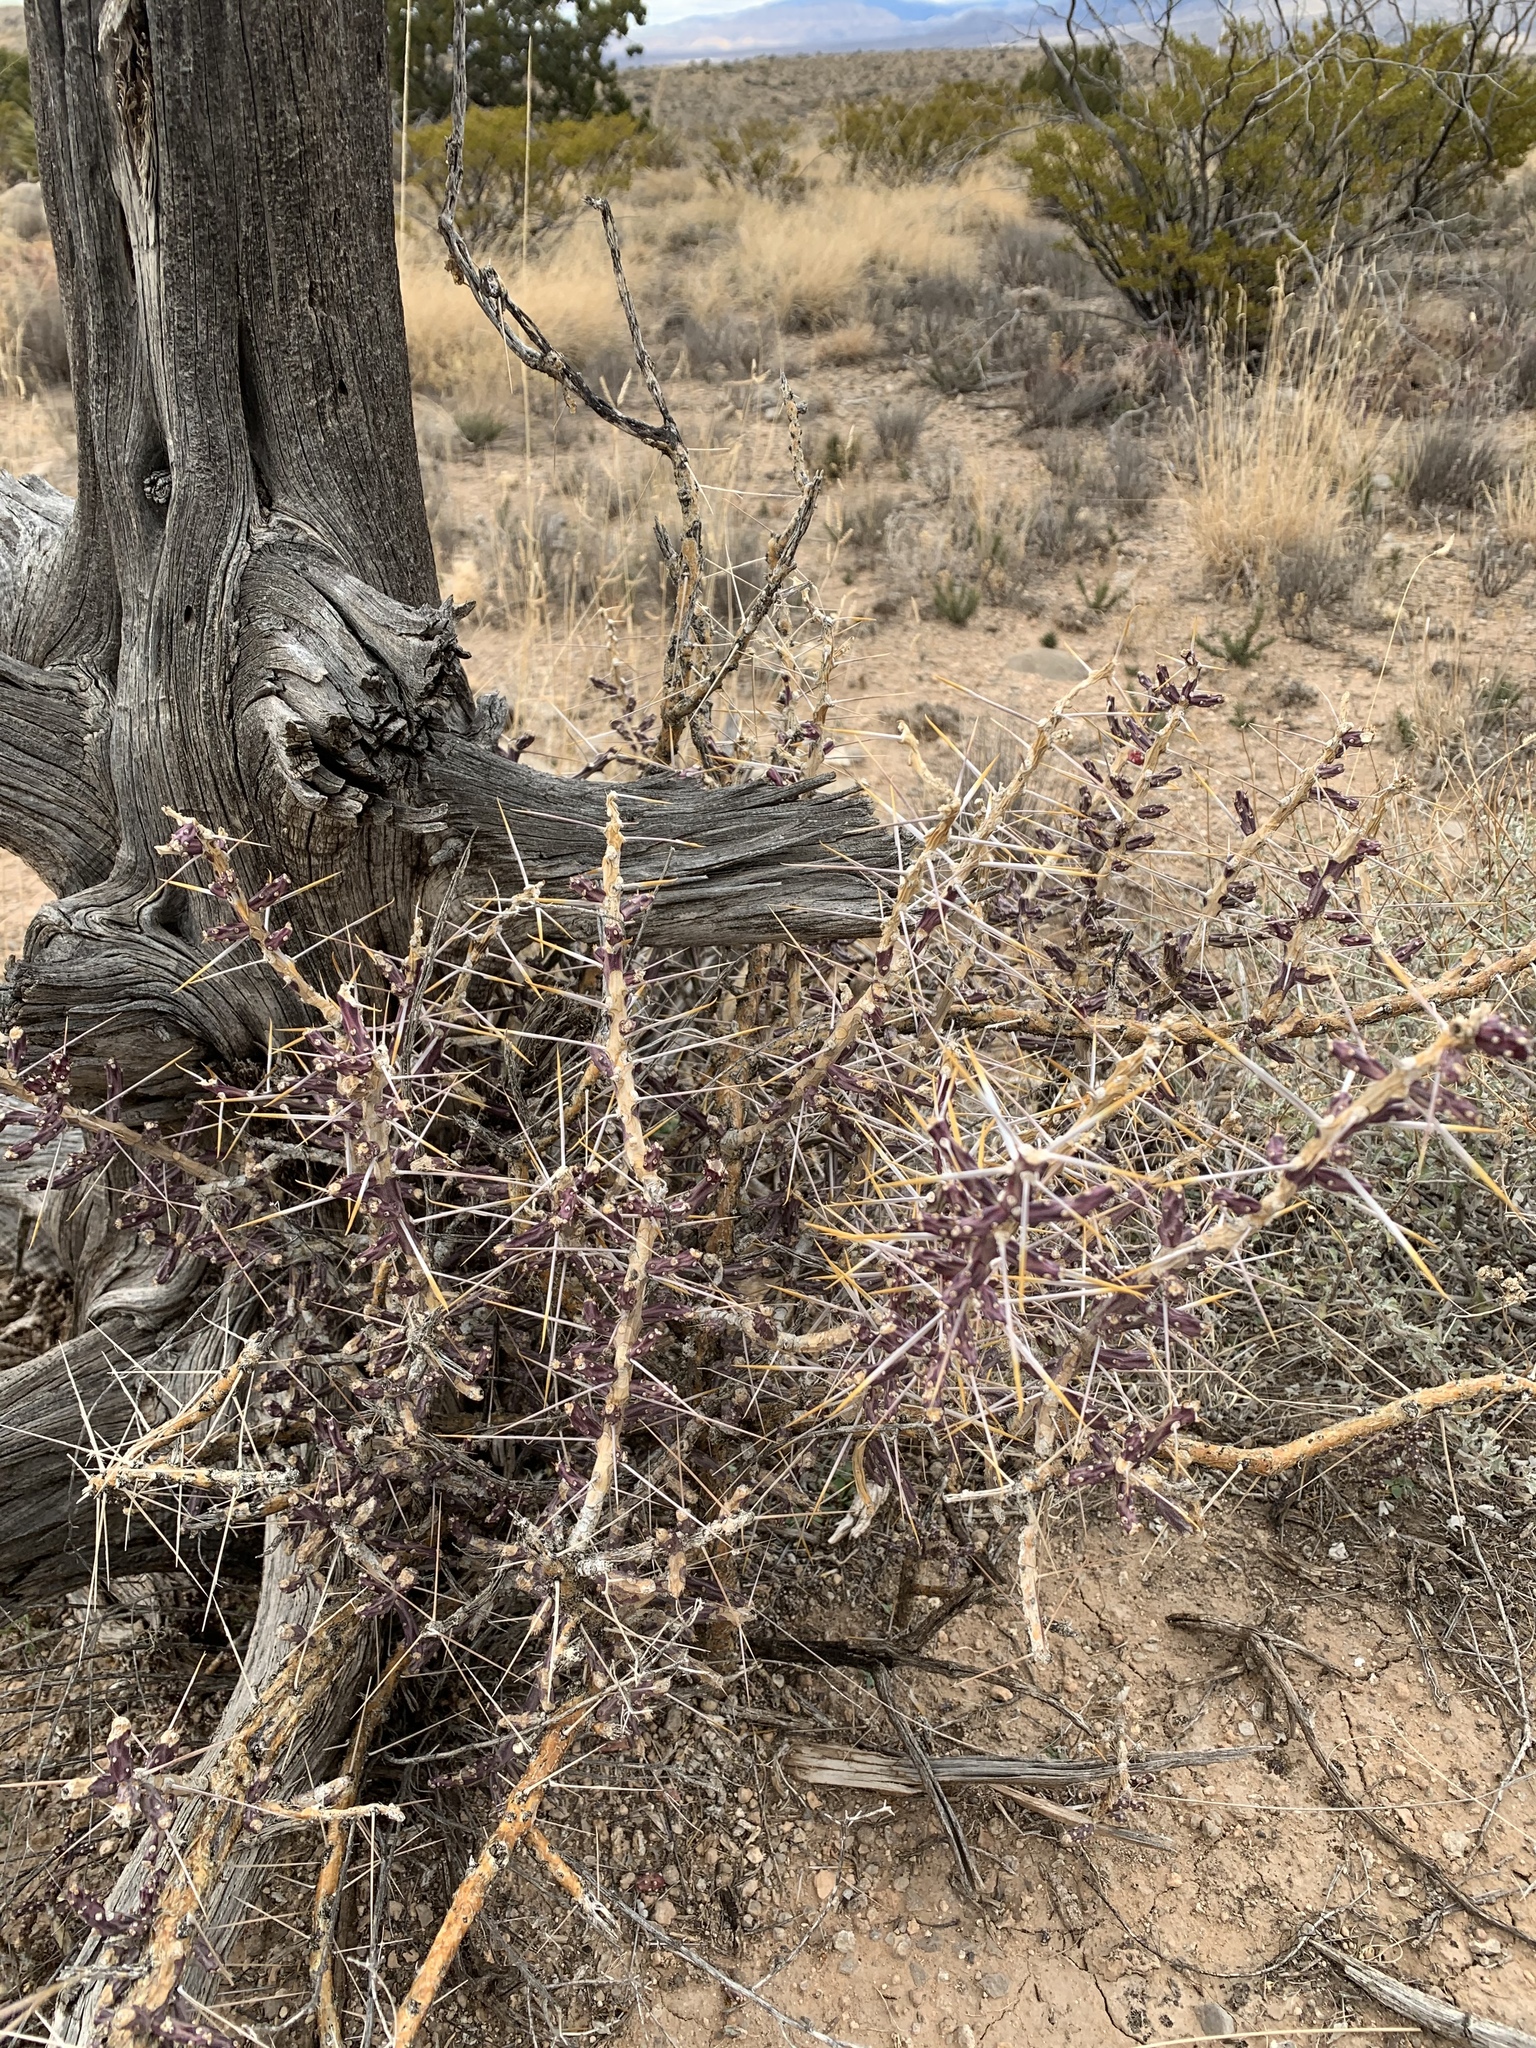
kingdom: Plantae
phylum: Tracheophyta
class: Magnoliopsida
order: Caryophyllales
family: Cactaceae
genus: Cylindropuntia
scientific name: Cylindropuntia leptocaulis
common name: Christmas cactus
